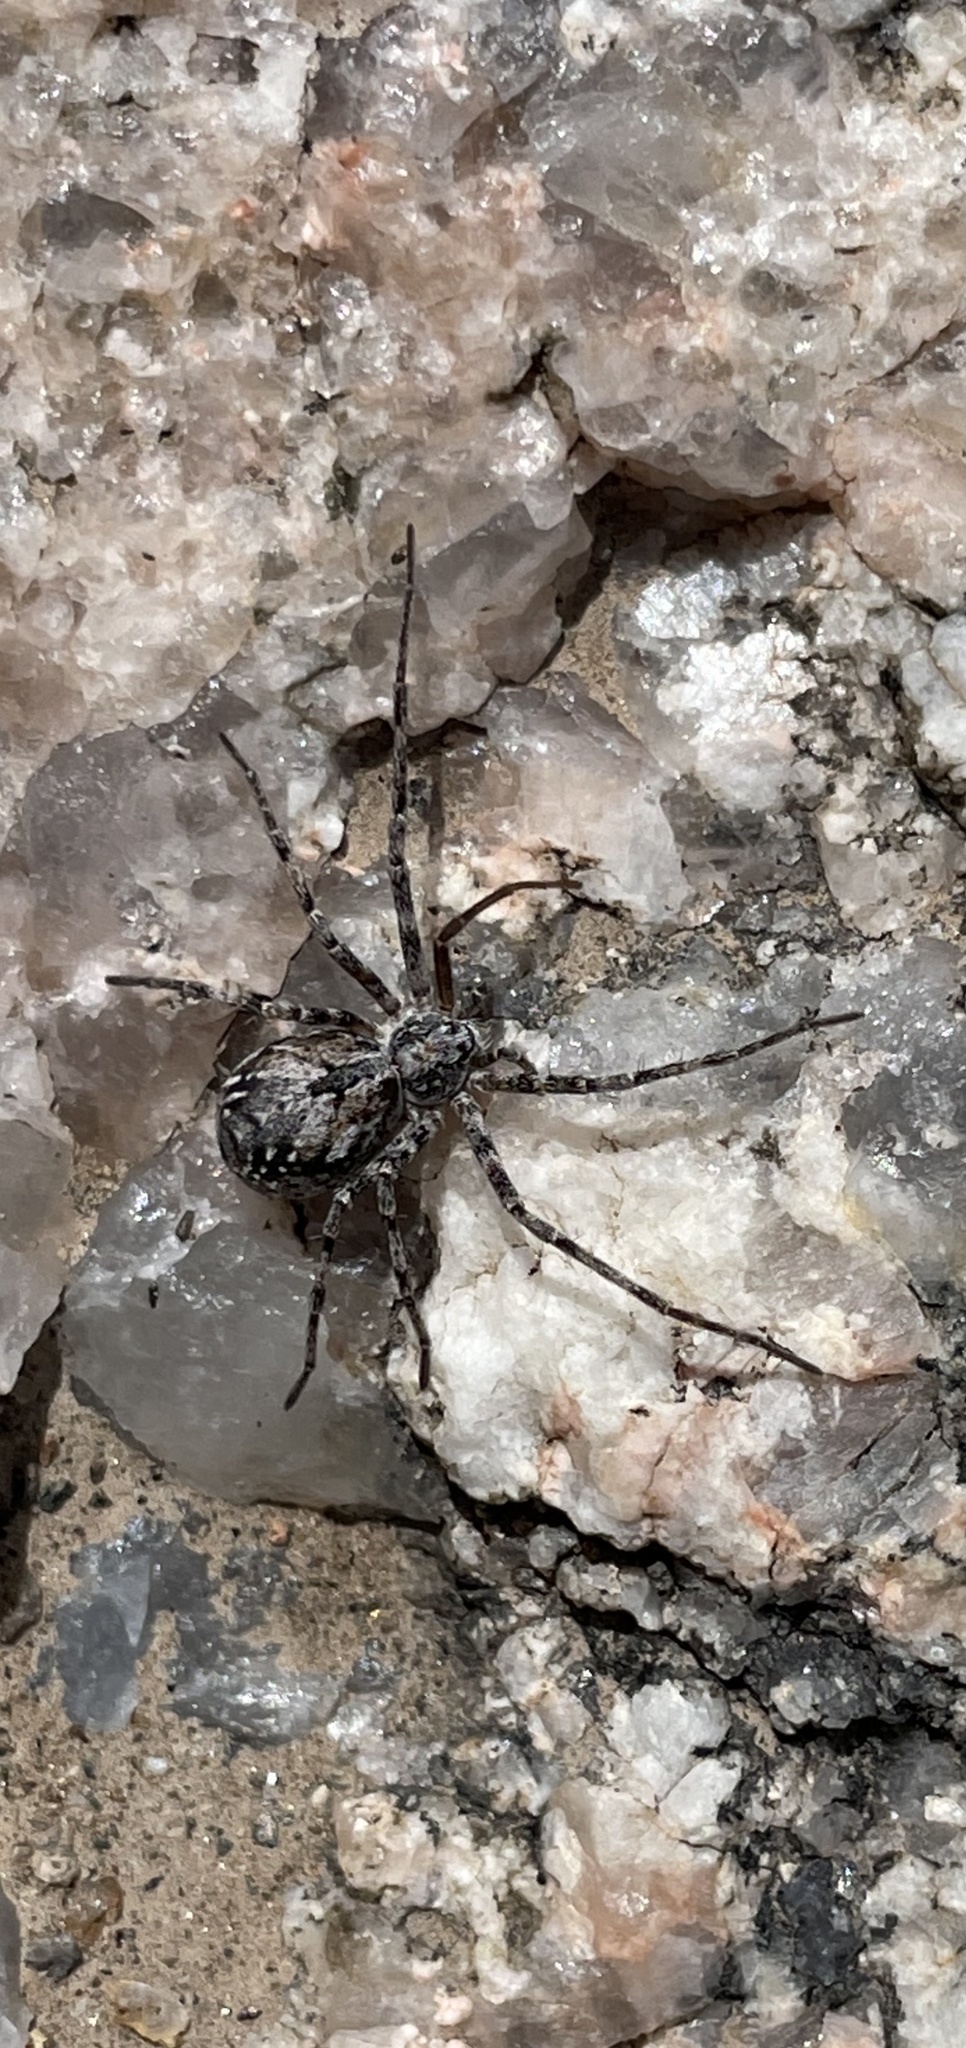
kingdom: Animalia
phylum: Arthropoda
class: Arachnida
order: Araneae
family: Philodromidae
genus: Rhysodromus
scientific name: Rhysodromus alascensis
